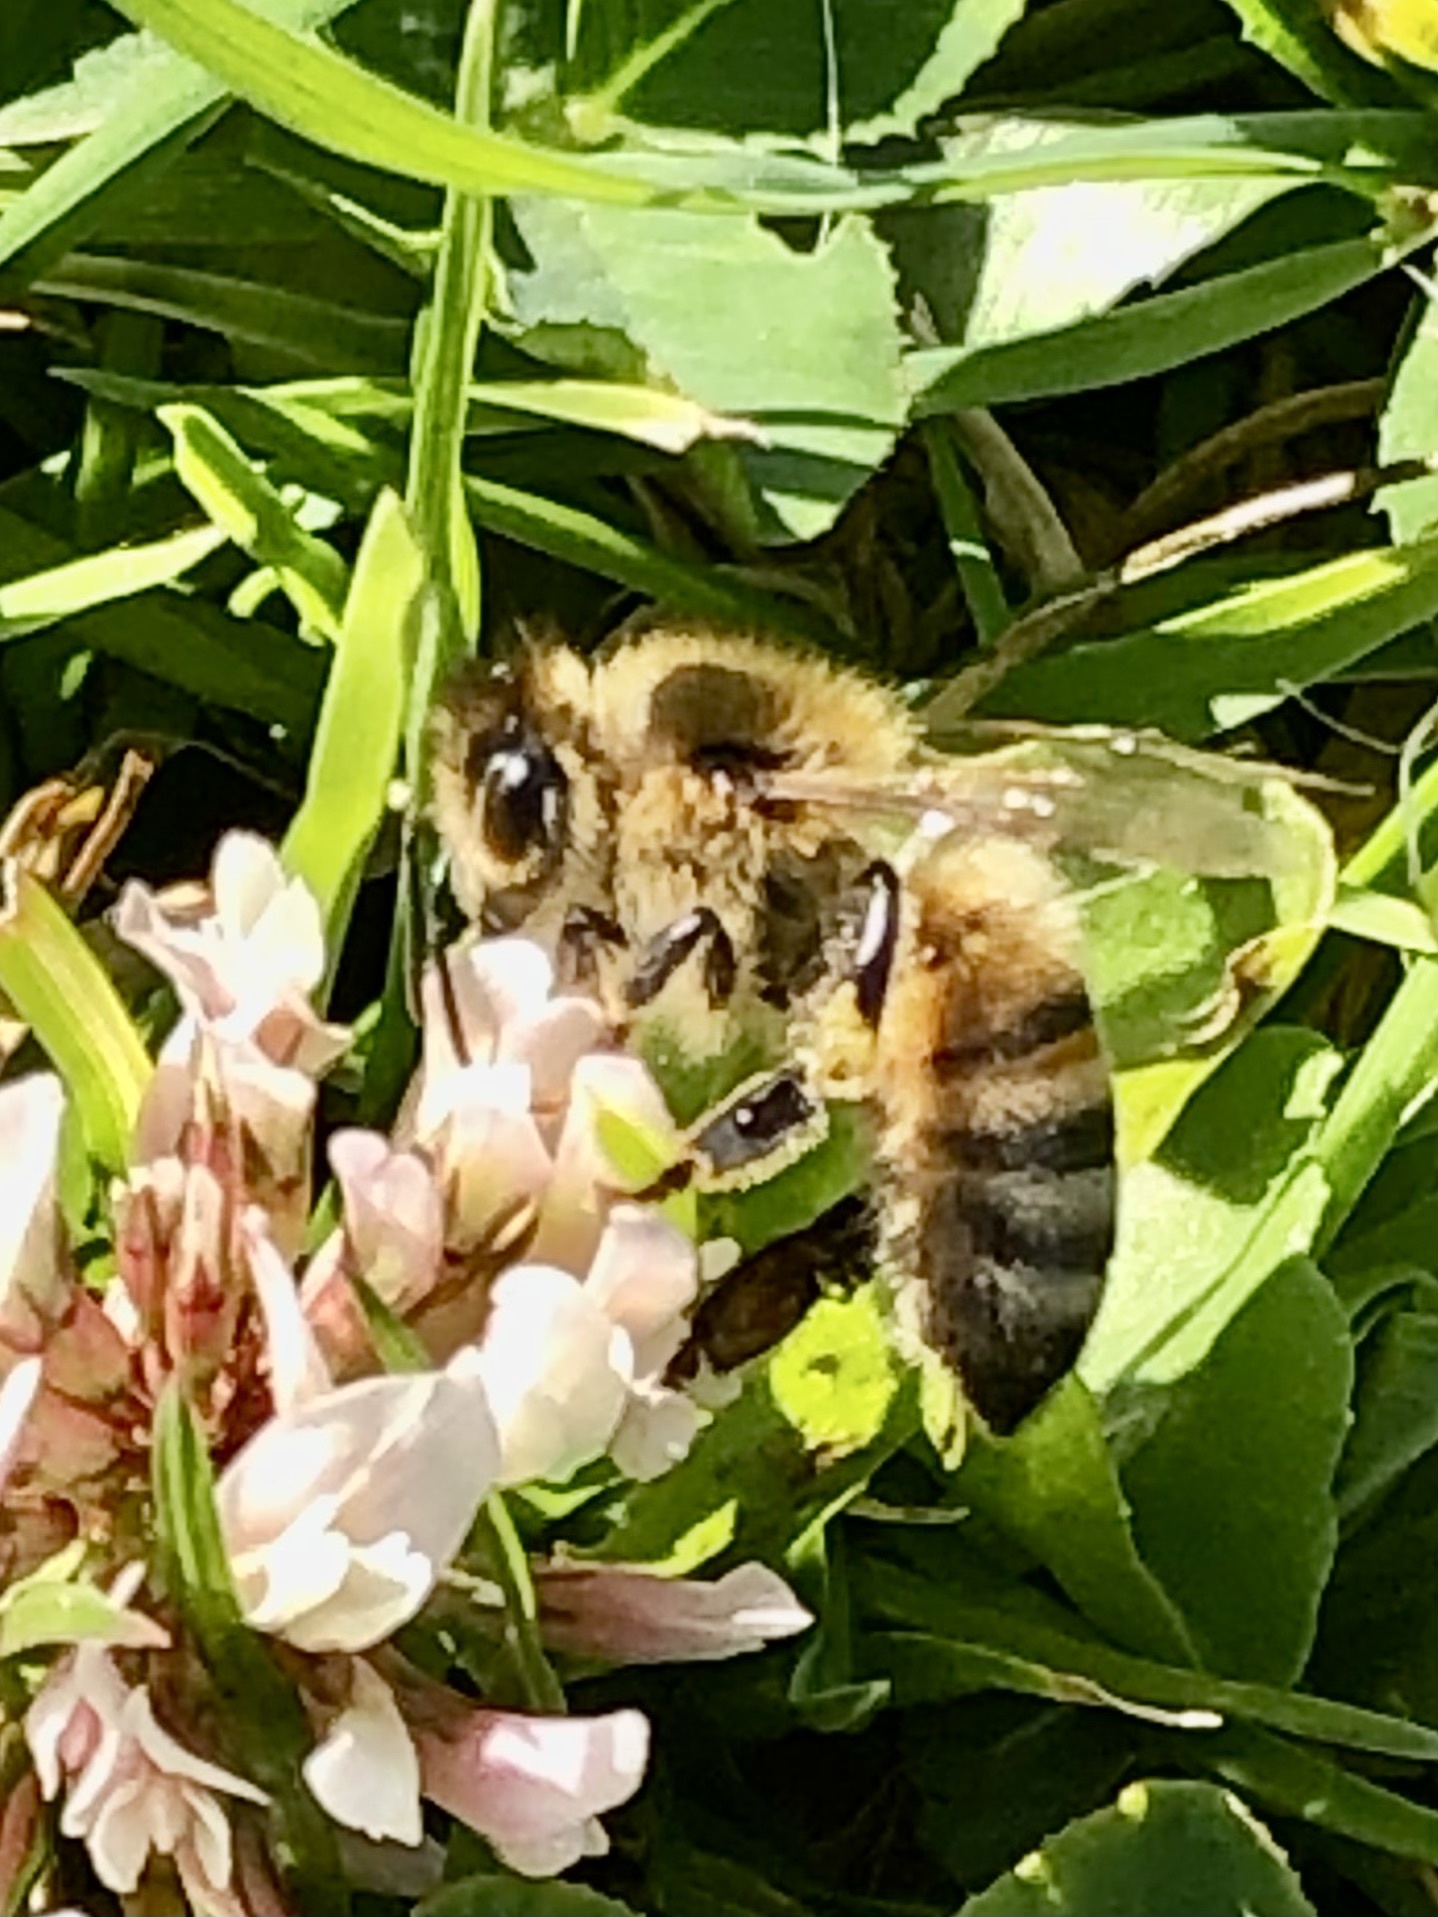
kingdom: Animalia
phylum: Arthropoda
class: Insecta
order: Hymenoptera
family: Apidae
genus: Apis
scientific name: Apis mellifera
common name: Honey bee
